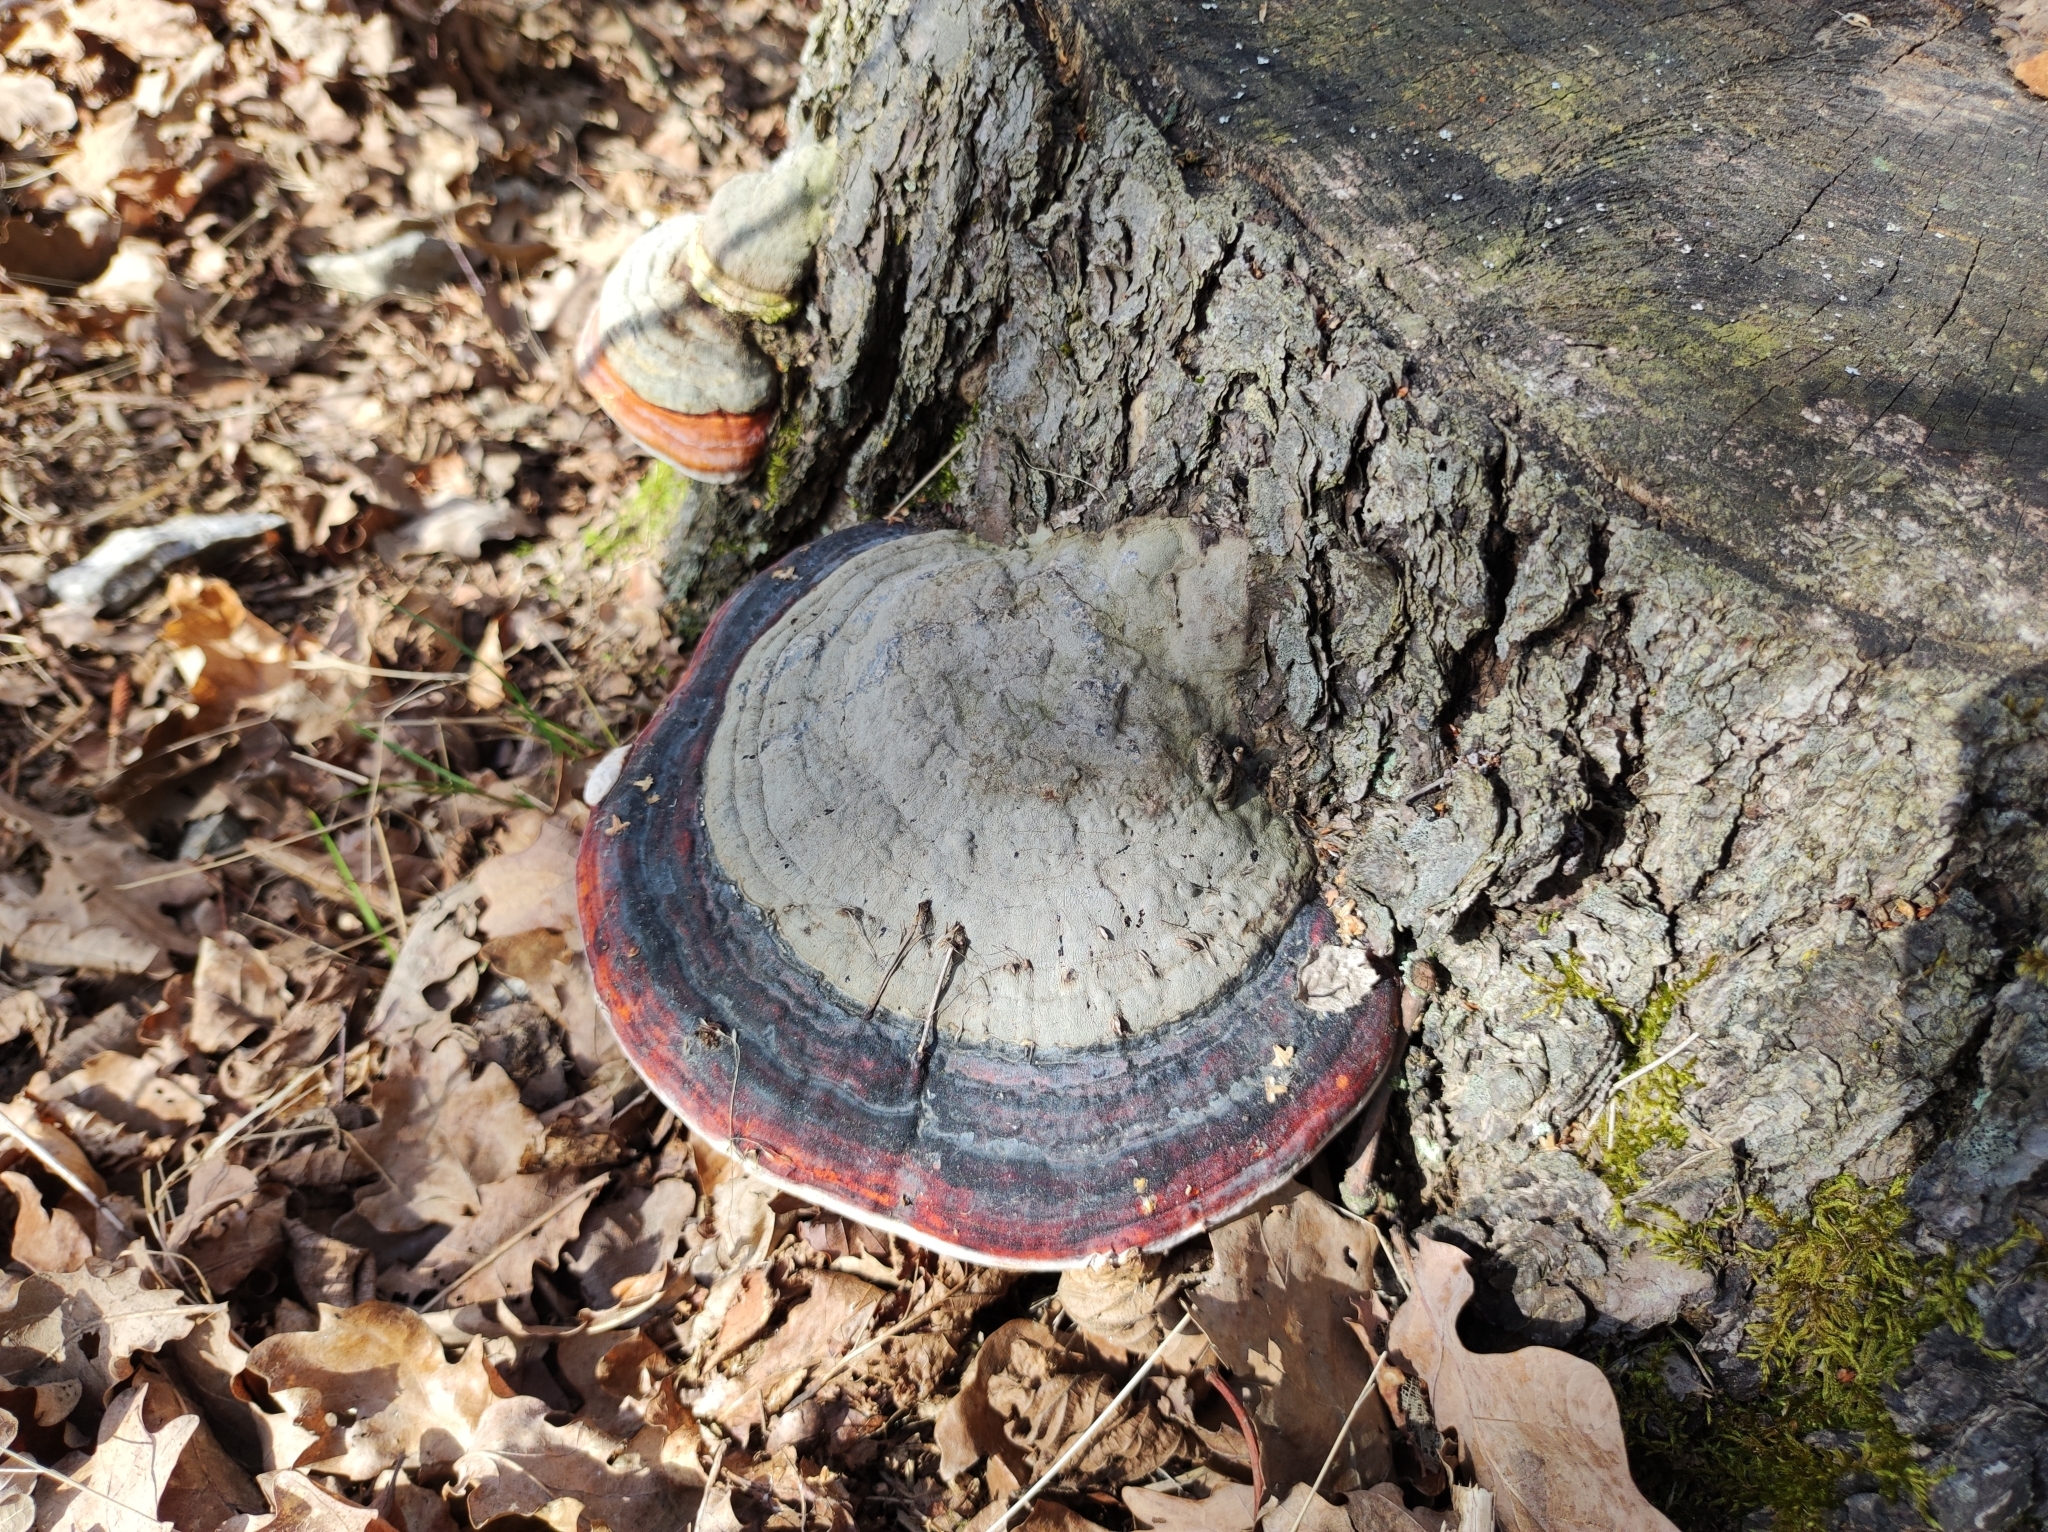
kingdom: Fungi
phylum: Basidiomycota
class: Agaricomycetes
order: Polyporales
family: Fomitopsidaceae
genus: Fomitopsis
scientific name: Fomitopsis pinicola
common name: Red-belted bracket
